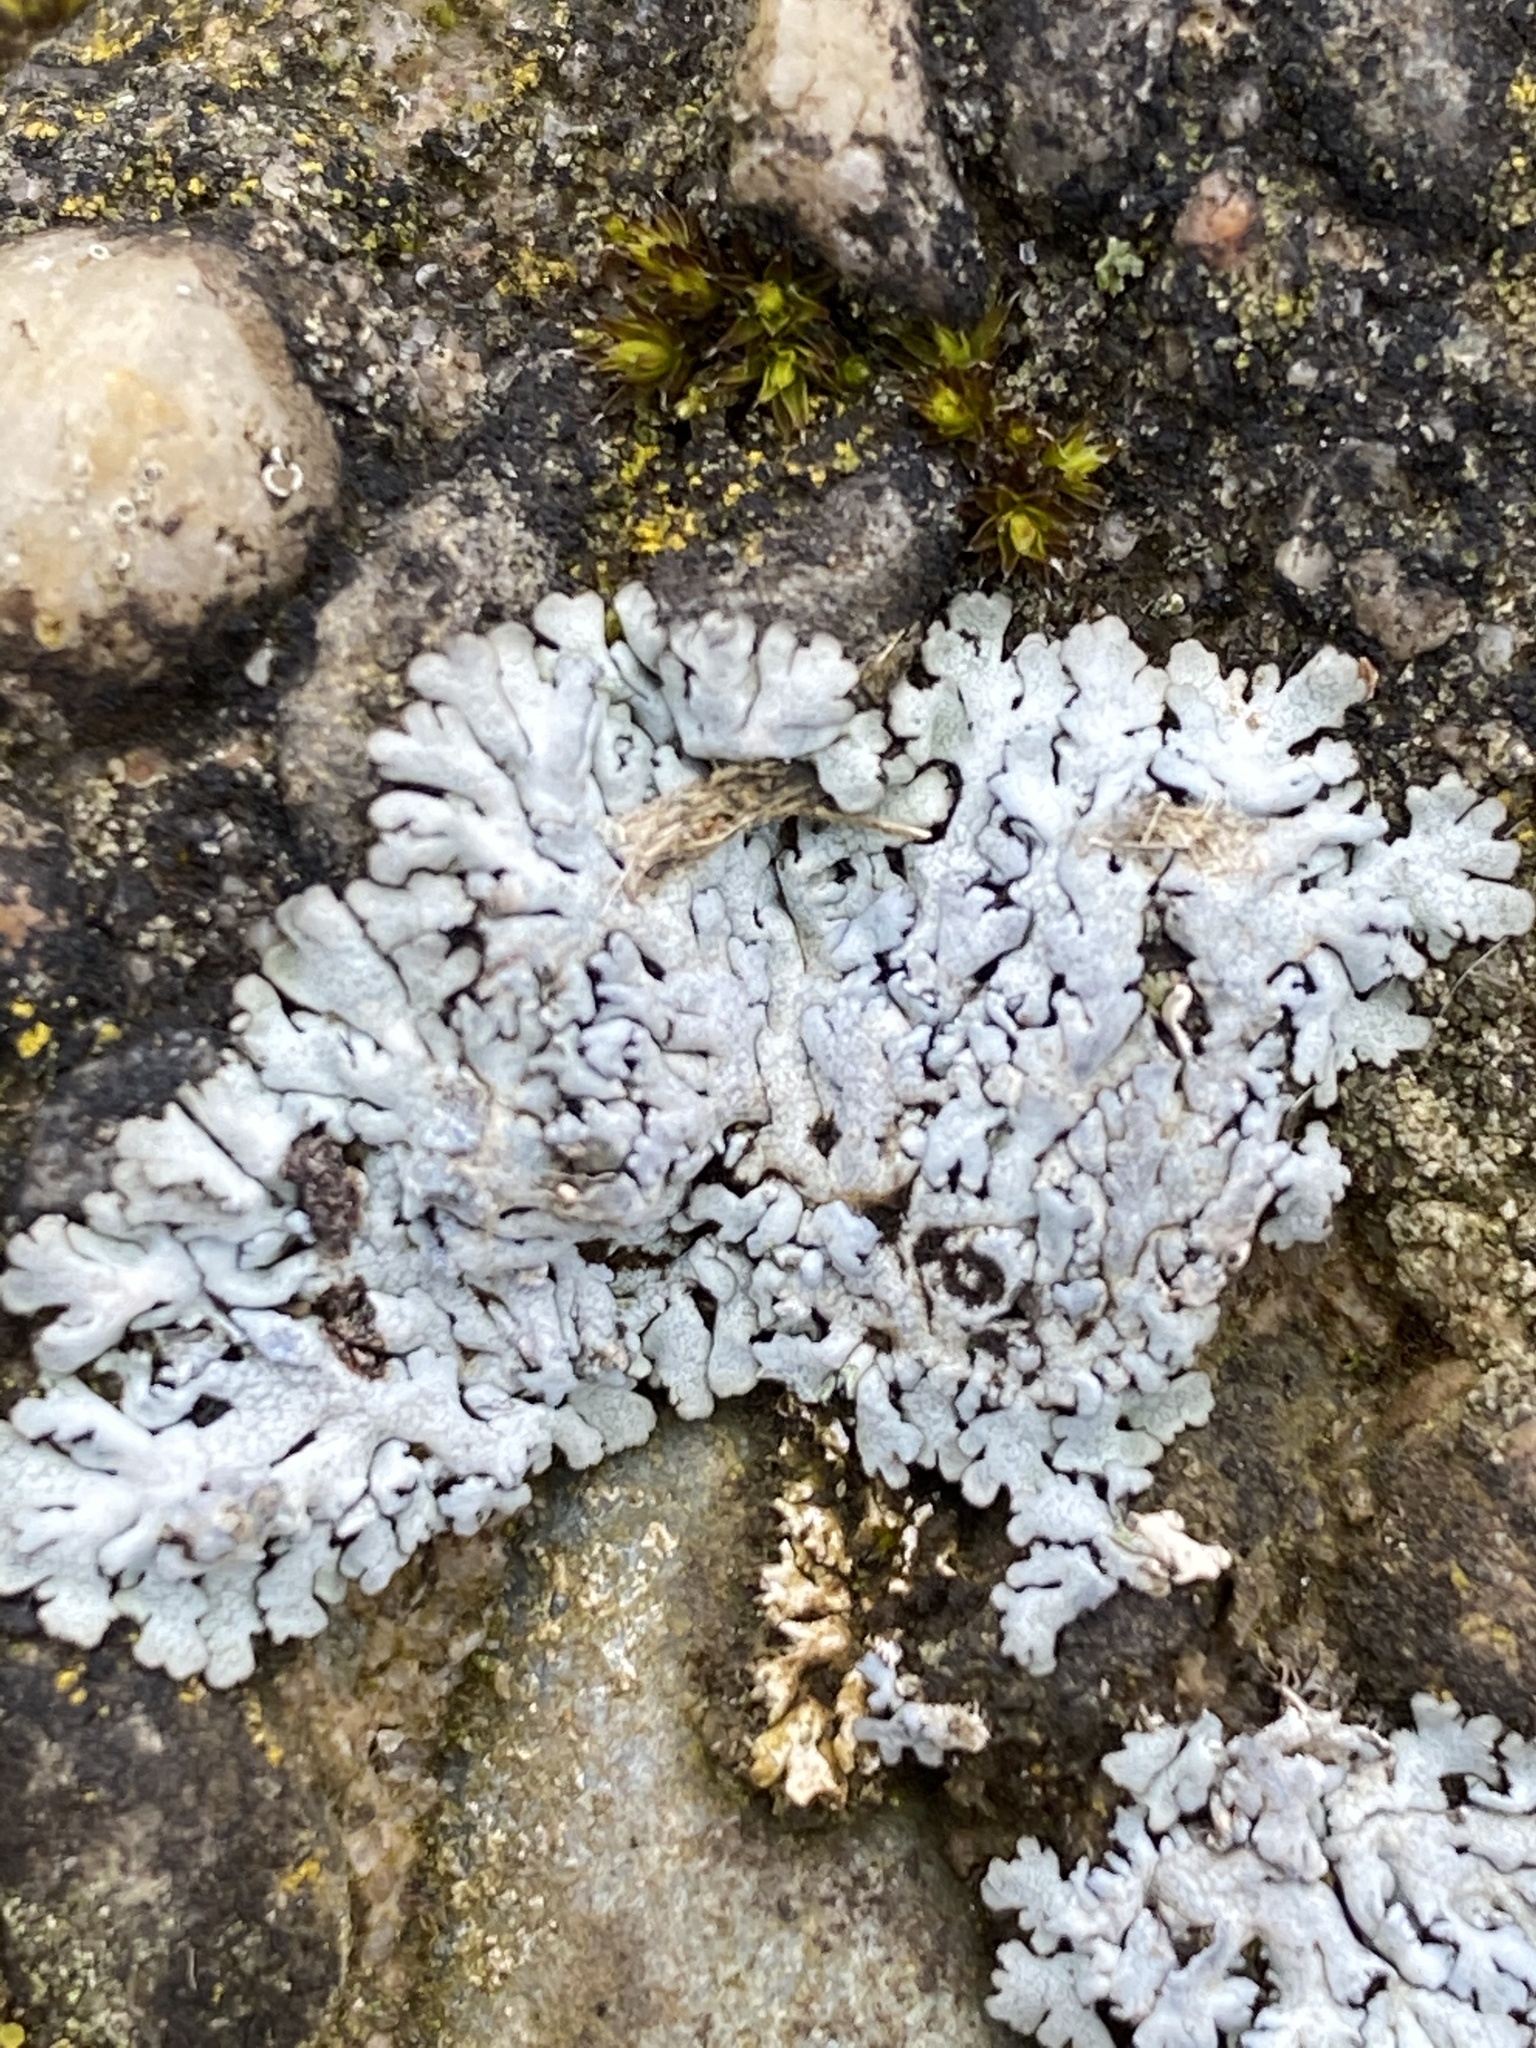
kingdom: Fungi
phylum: Ascomycota
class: Lecanoromycetes
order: Caliciales
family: Physciaceae
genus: Physcia
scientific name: Physcia caesia
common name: Blue-gray rosette lichen
